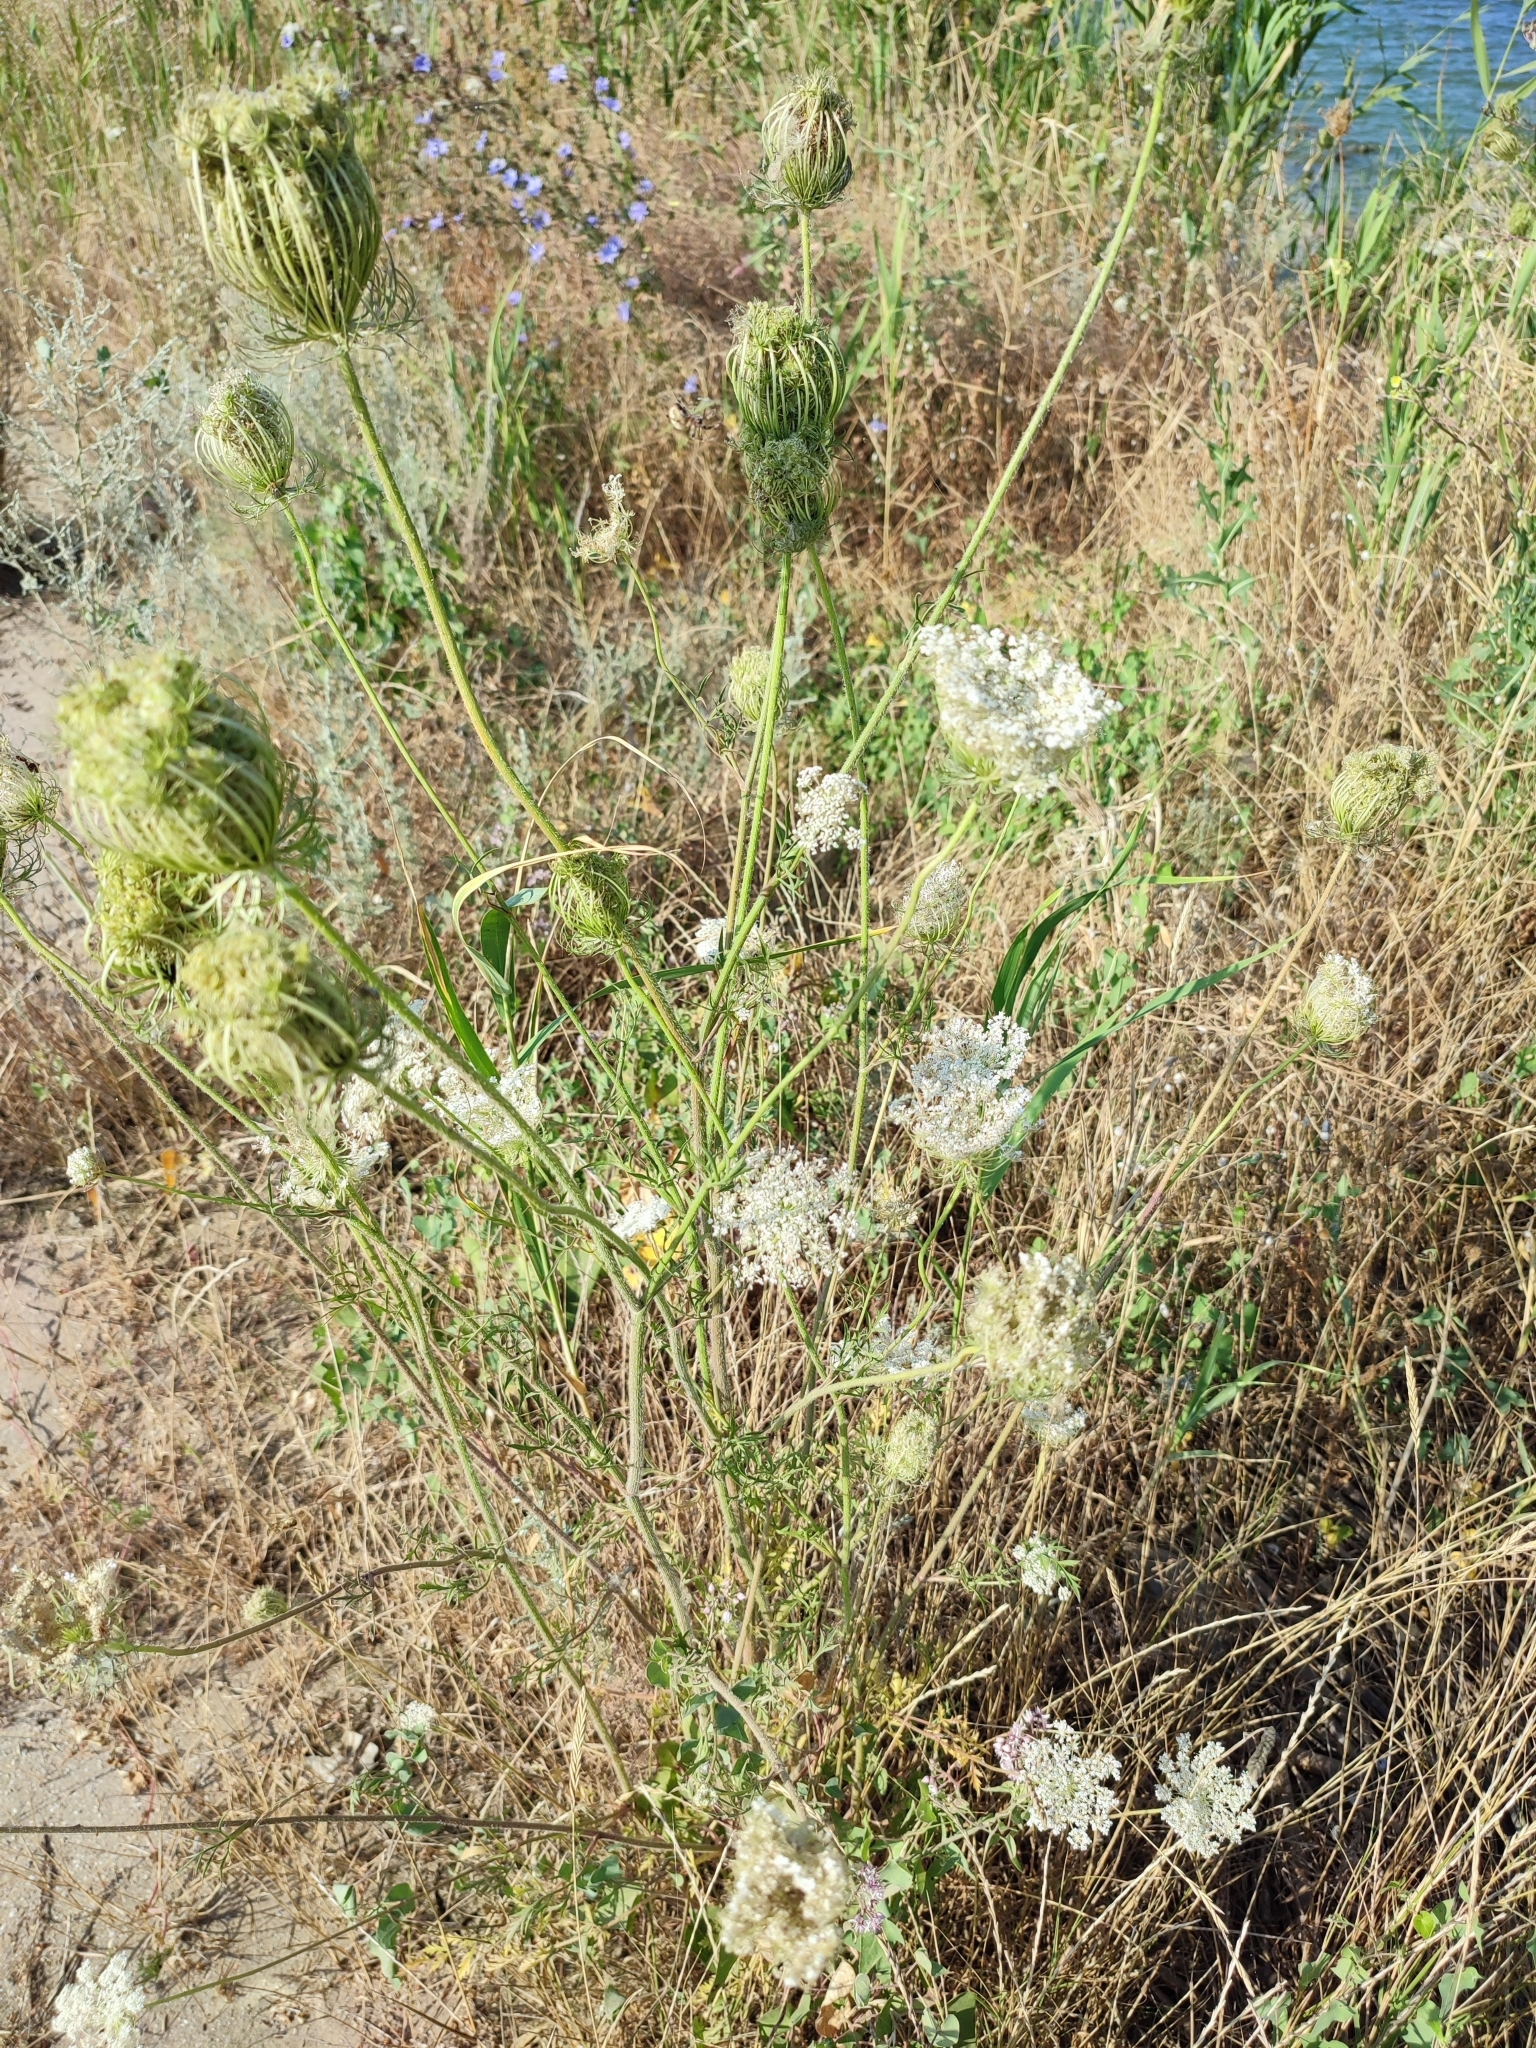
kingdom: Plantae
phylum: Tracheophyta
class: Magnoliopsida
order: Apiales
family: Apiaceae
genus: Daucus
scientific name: Daucus carota
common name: Wild carrot
